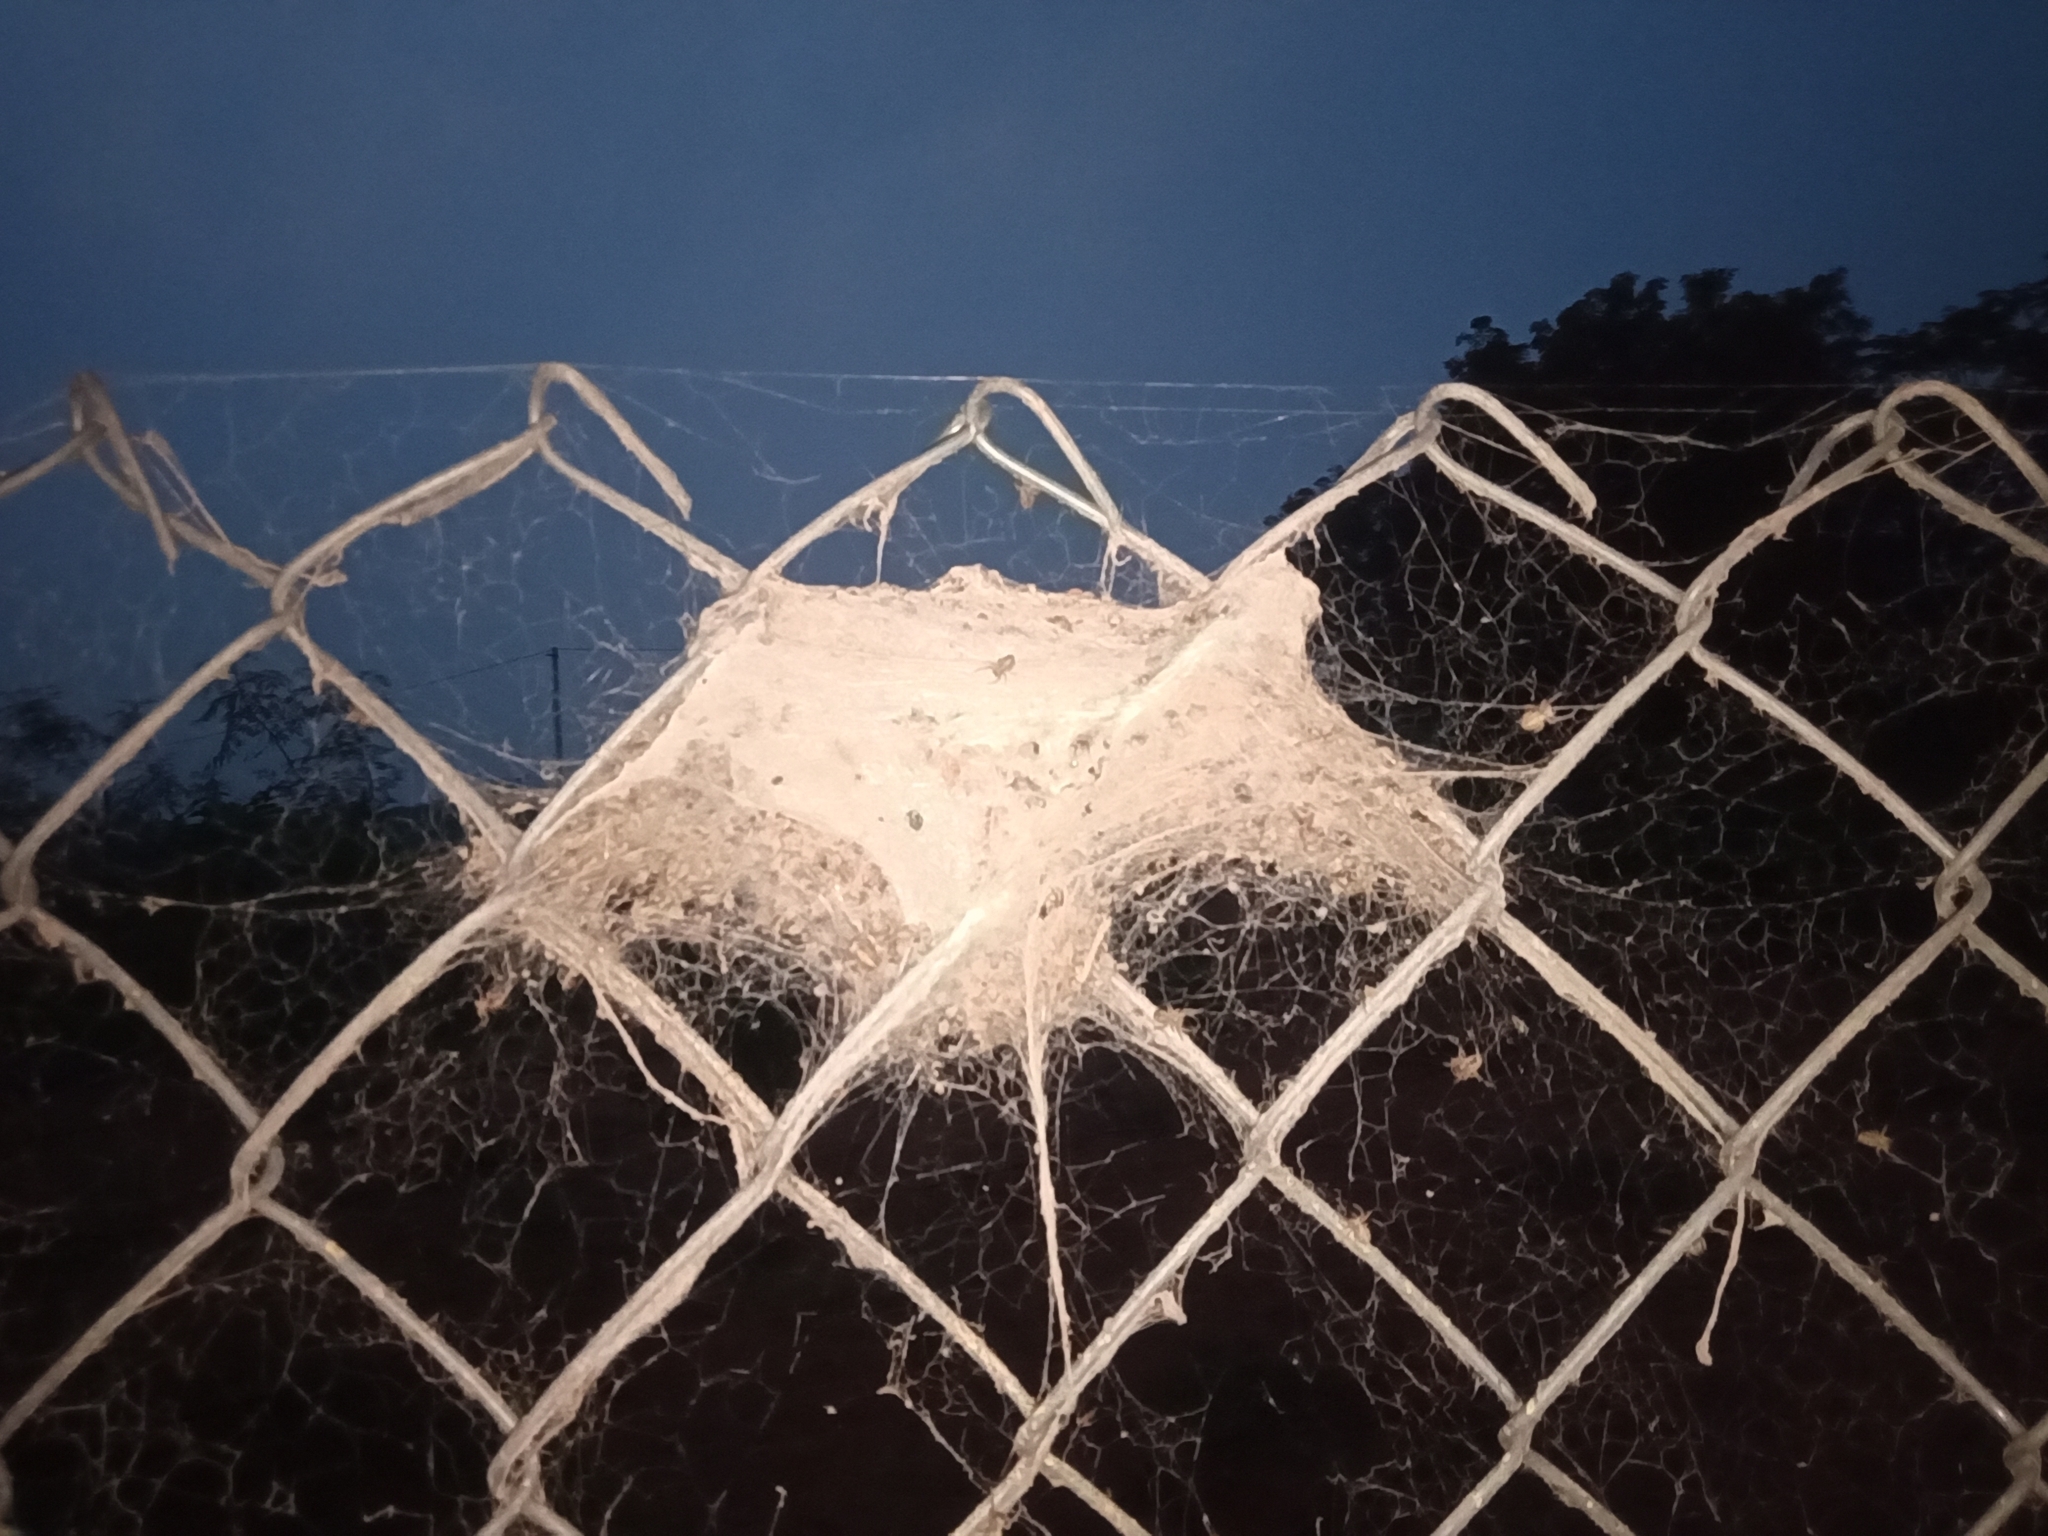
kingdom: Animalia
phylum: Arthropoda
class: Arachnida
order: Araneae
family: Eresidae
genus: Stegodyphus
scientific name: Stegodyphus sarasinorum
